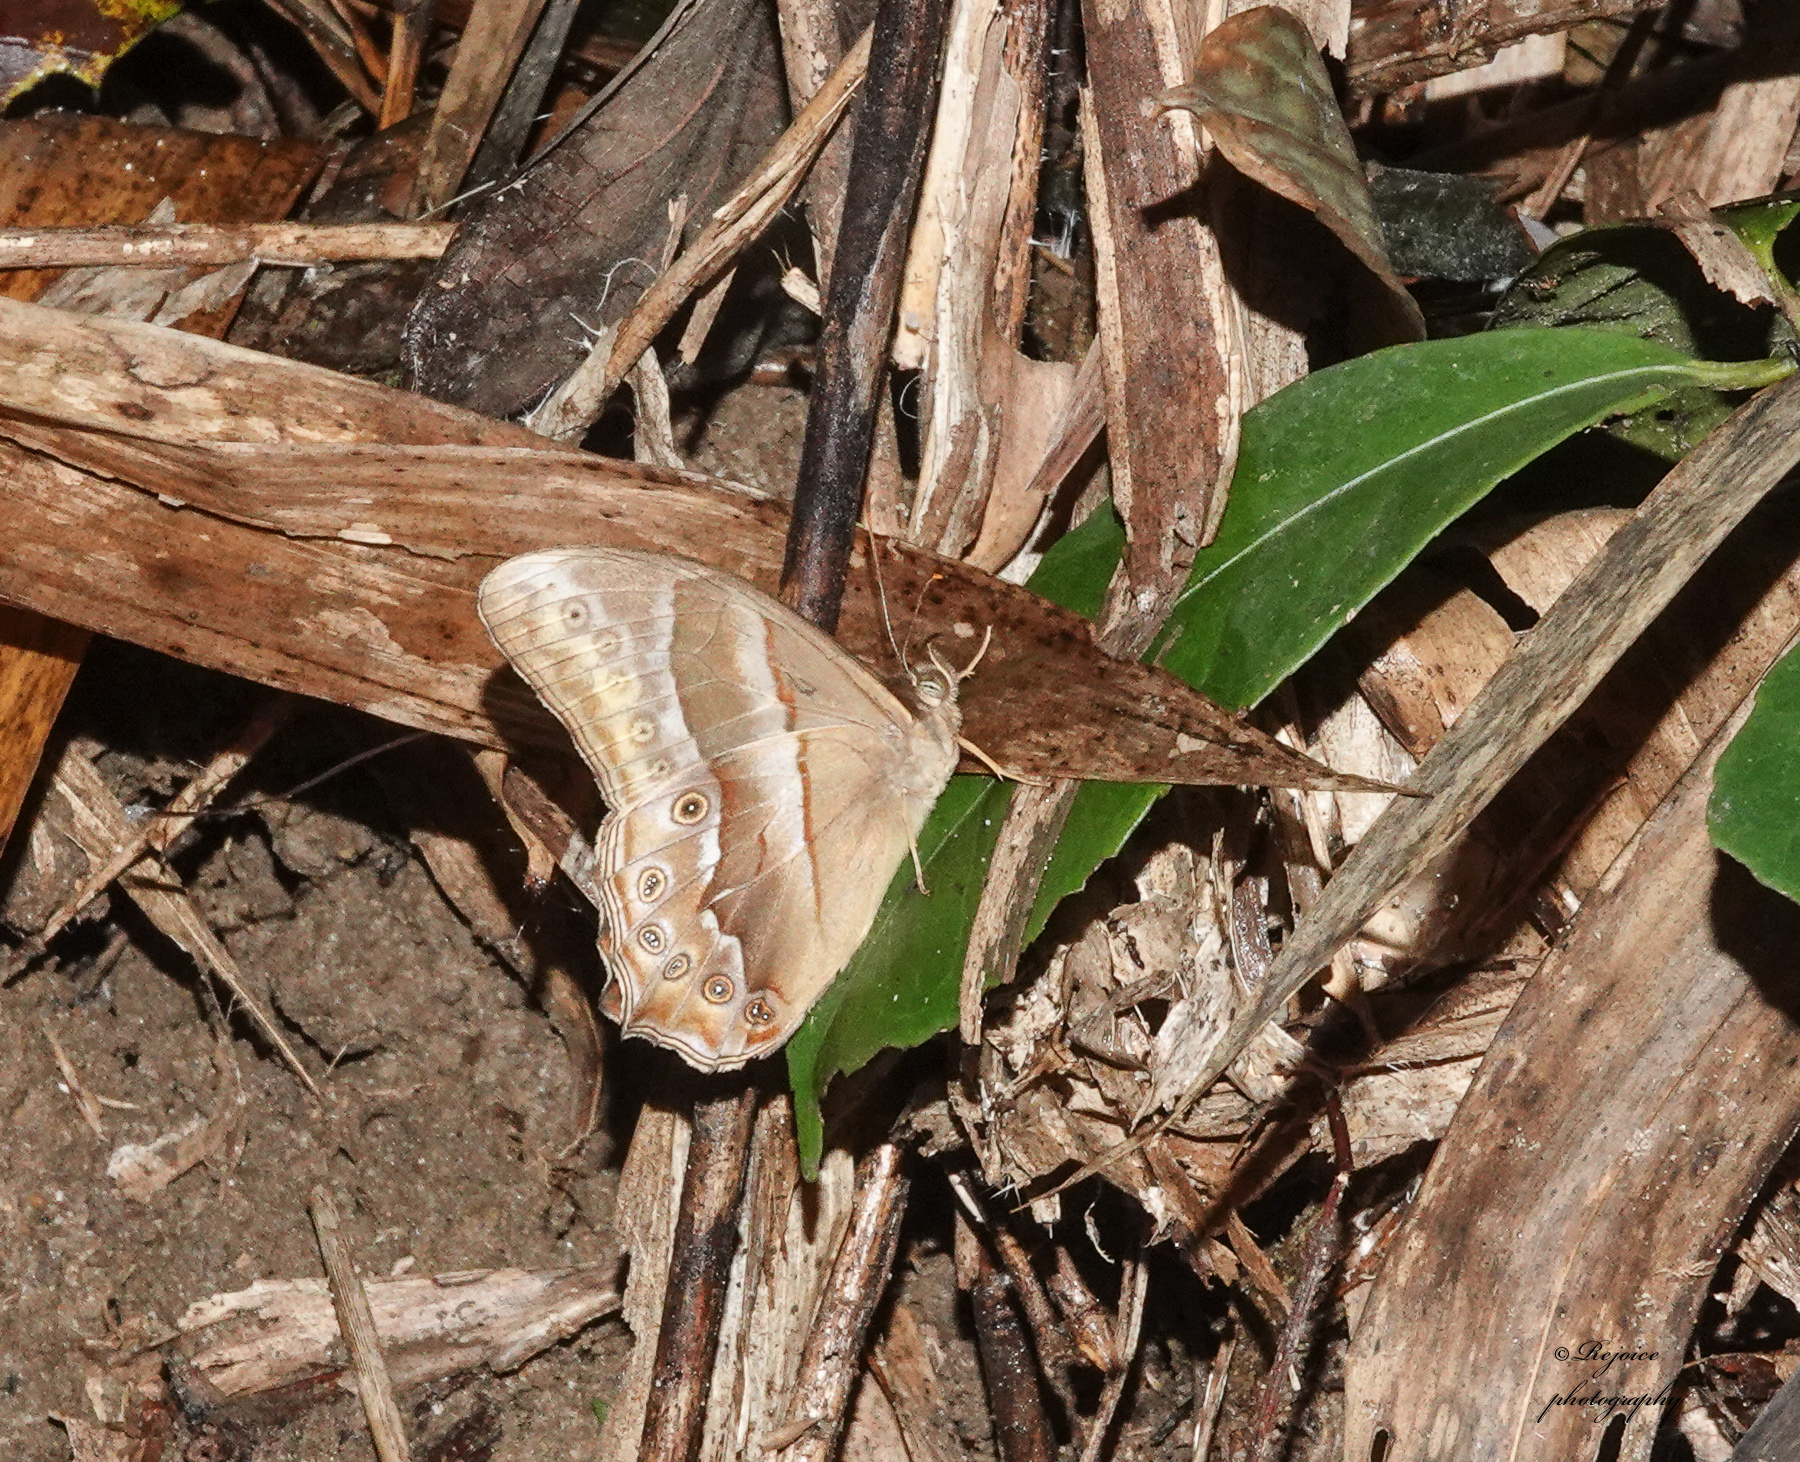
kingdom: Animalia
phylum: Arthropoda
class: Insecta
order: Lepidoptera
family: Nymphalidae
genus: Lethe
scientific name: Lethe mekara
